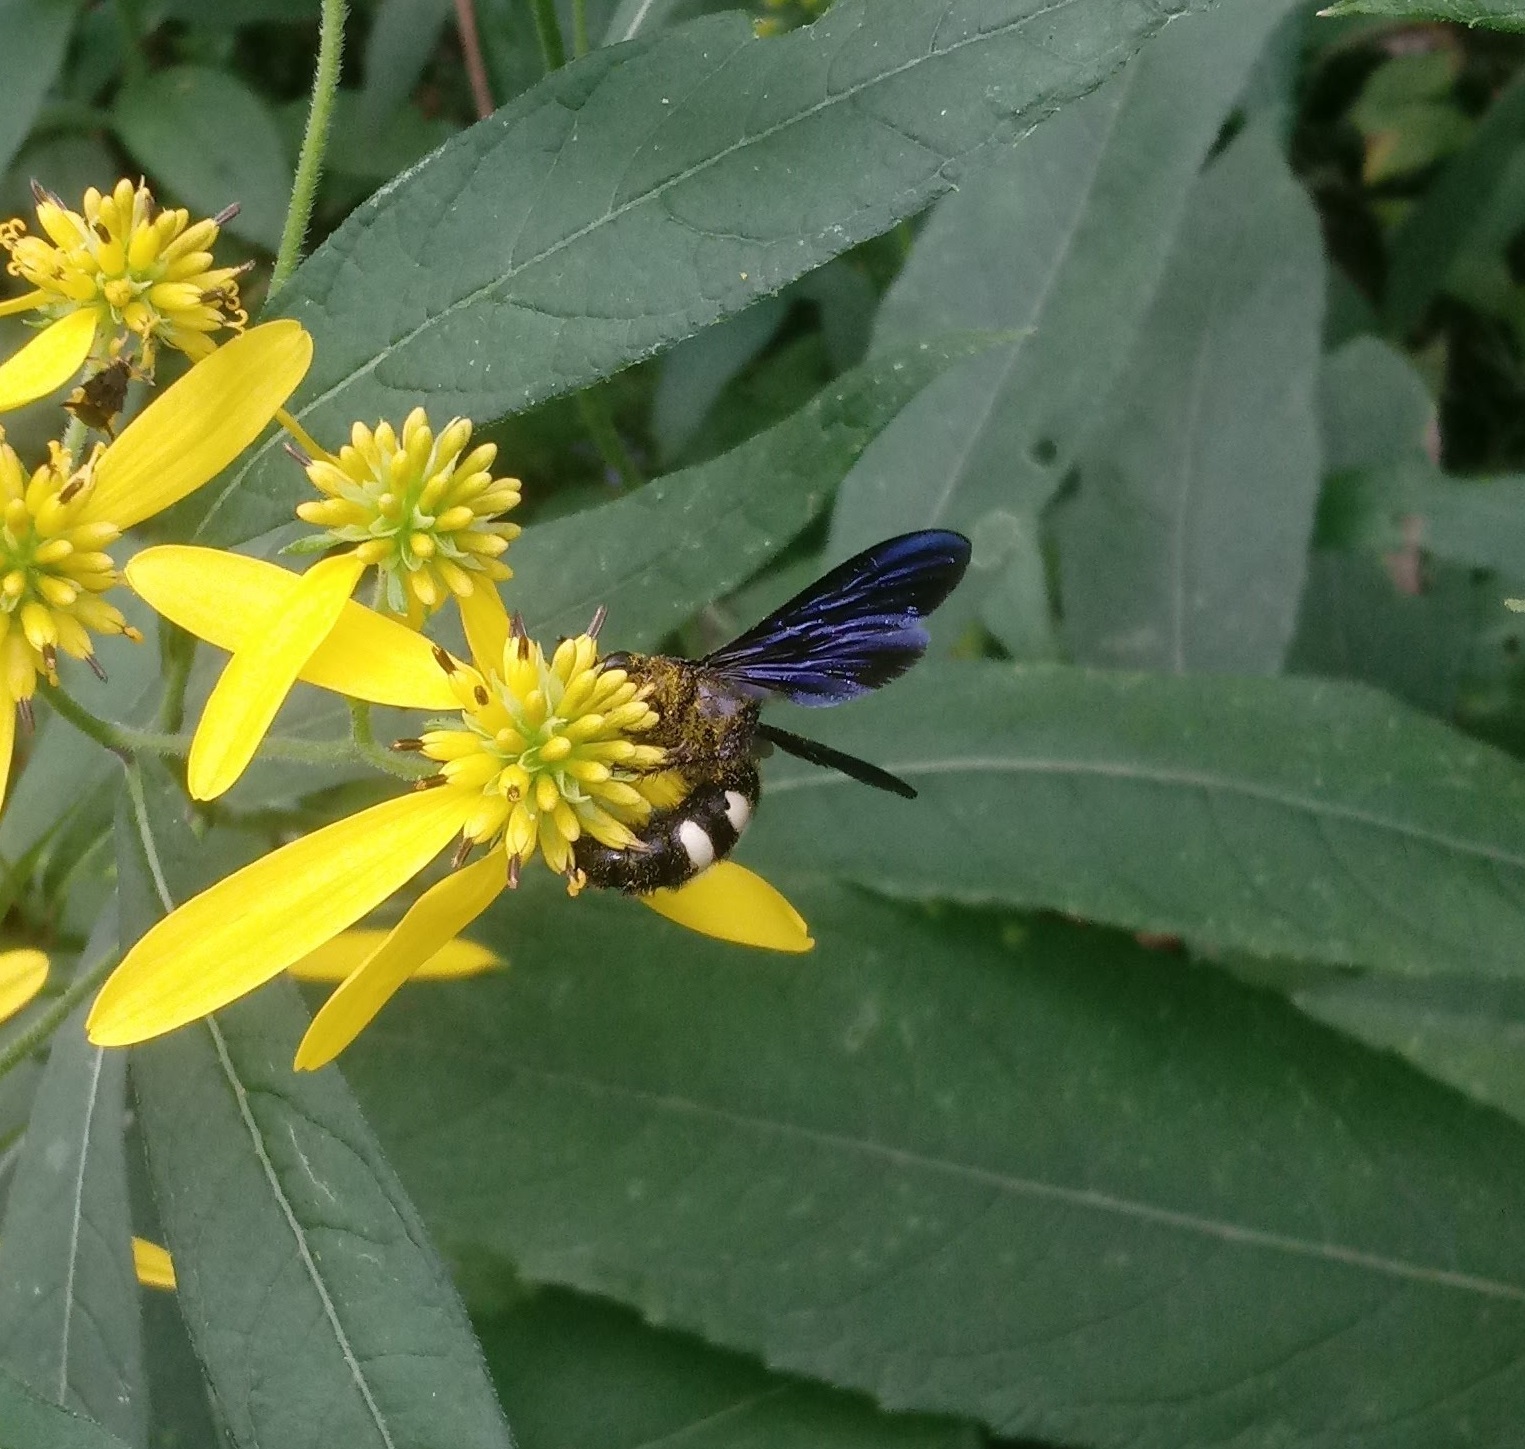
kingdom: Animalia
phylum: Arthropoda
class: Insecta
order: Hymenoptera
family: Scoliidae
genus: Scolia
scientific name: Scolia bicincta
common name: Double-banded scoliid wasp
